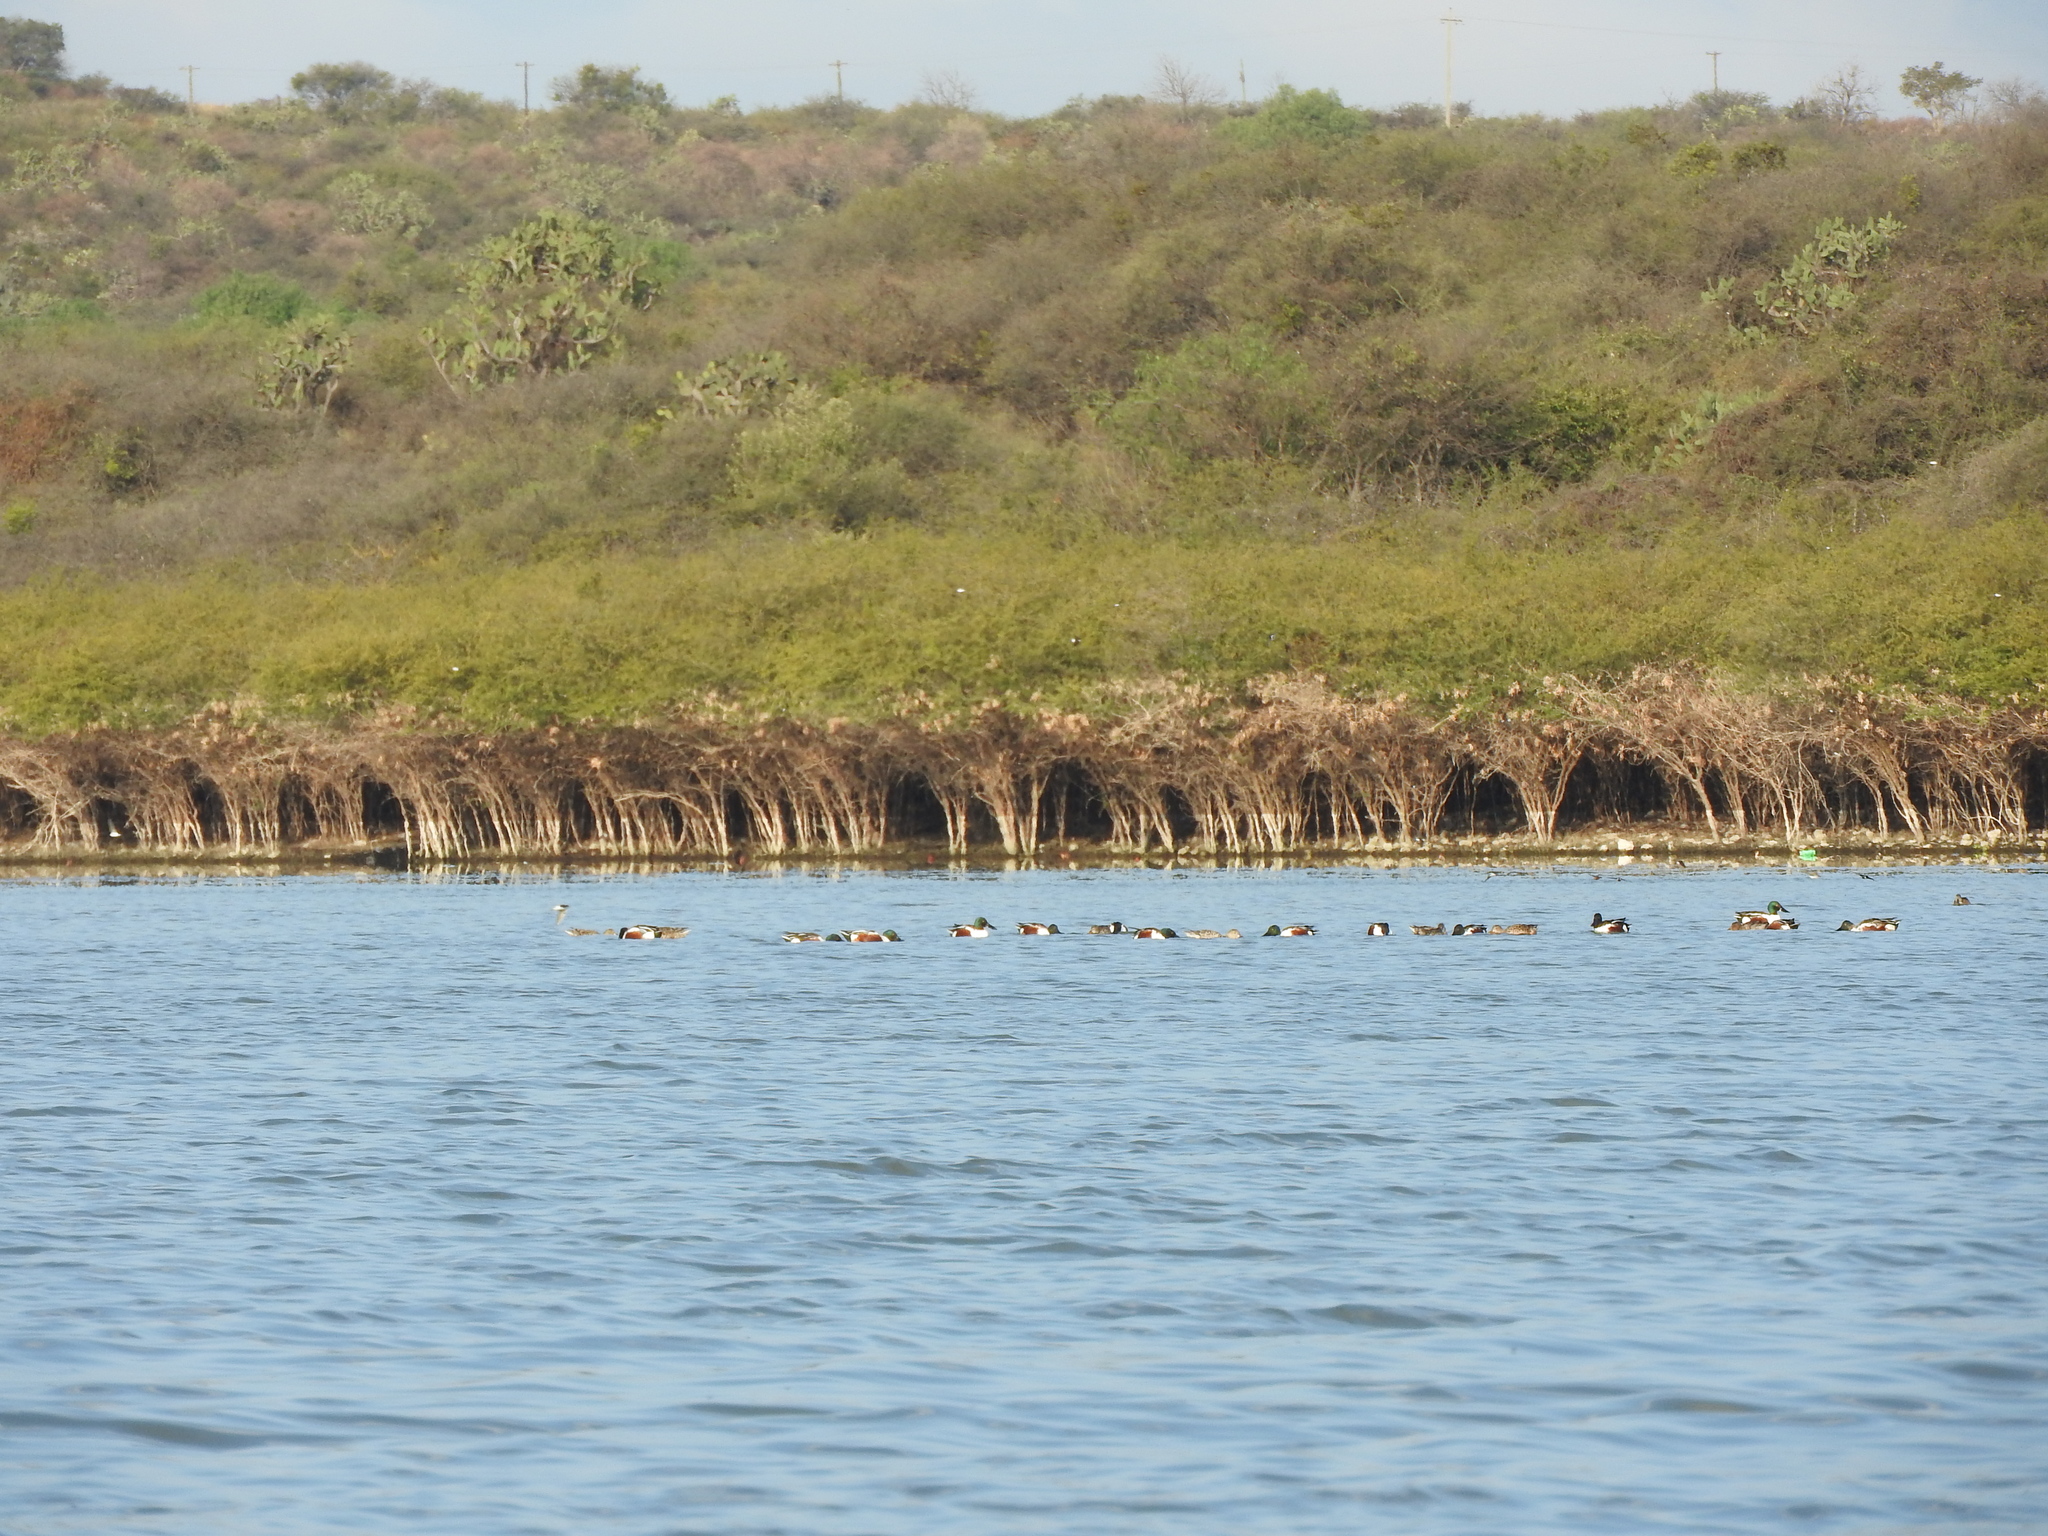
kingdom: Animalia
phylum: Chordata
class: Aves
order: Anseriformes
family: Anatidae
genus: Spatula
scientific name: Spatula clypeata
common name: Northern shoveler
